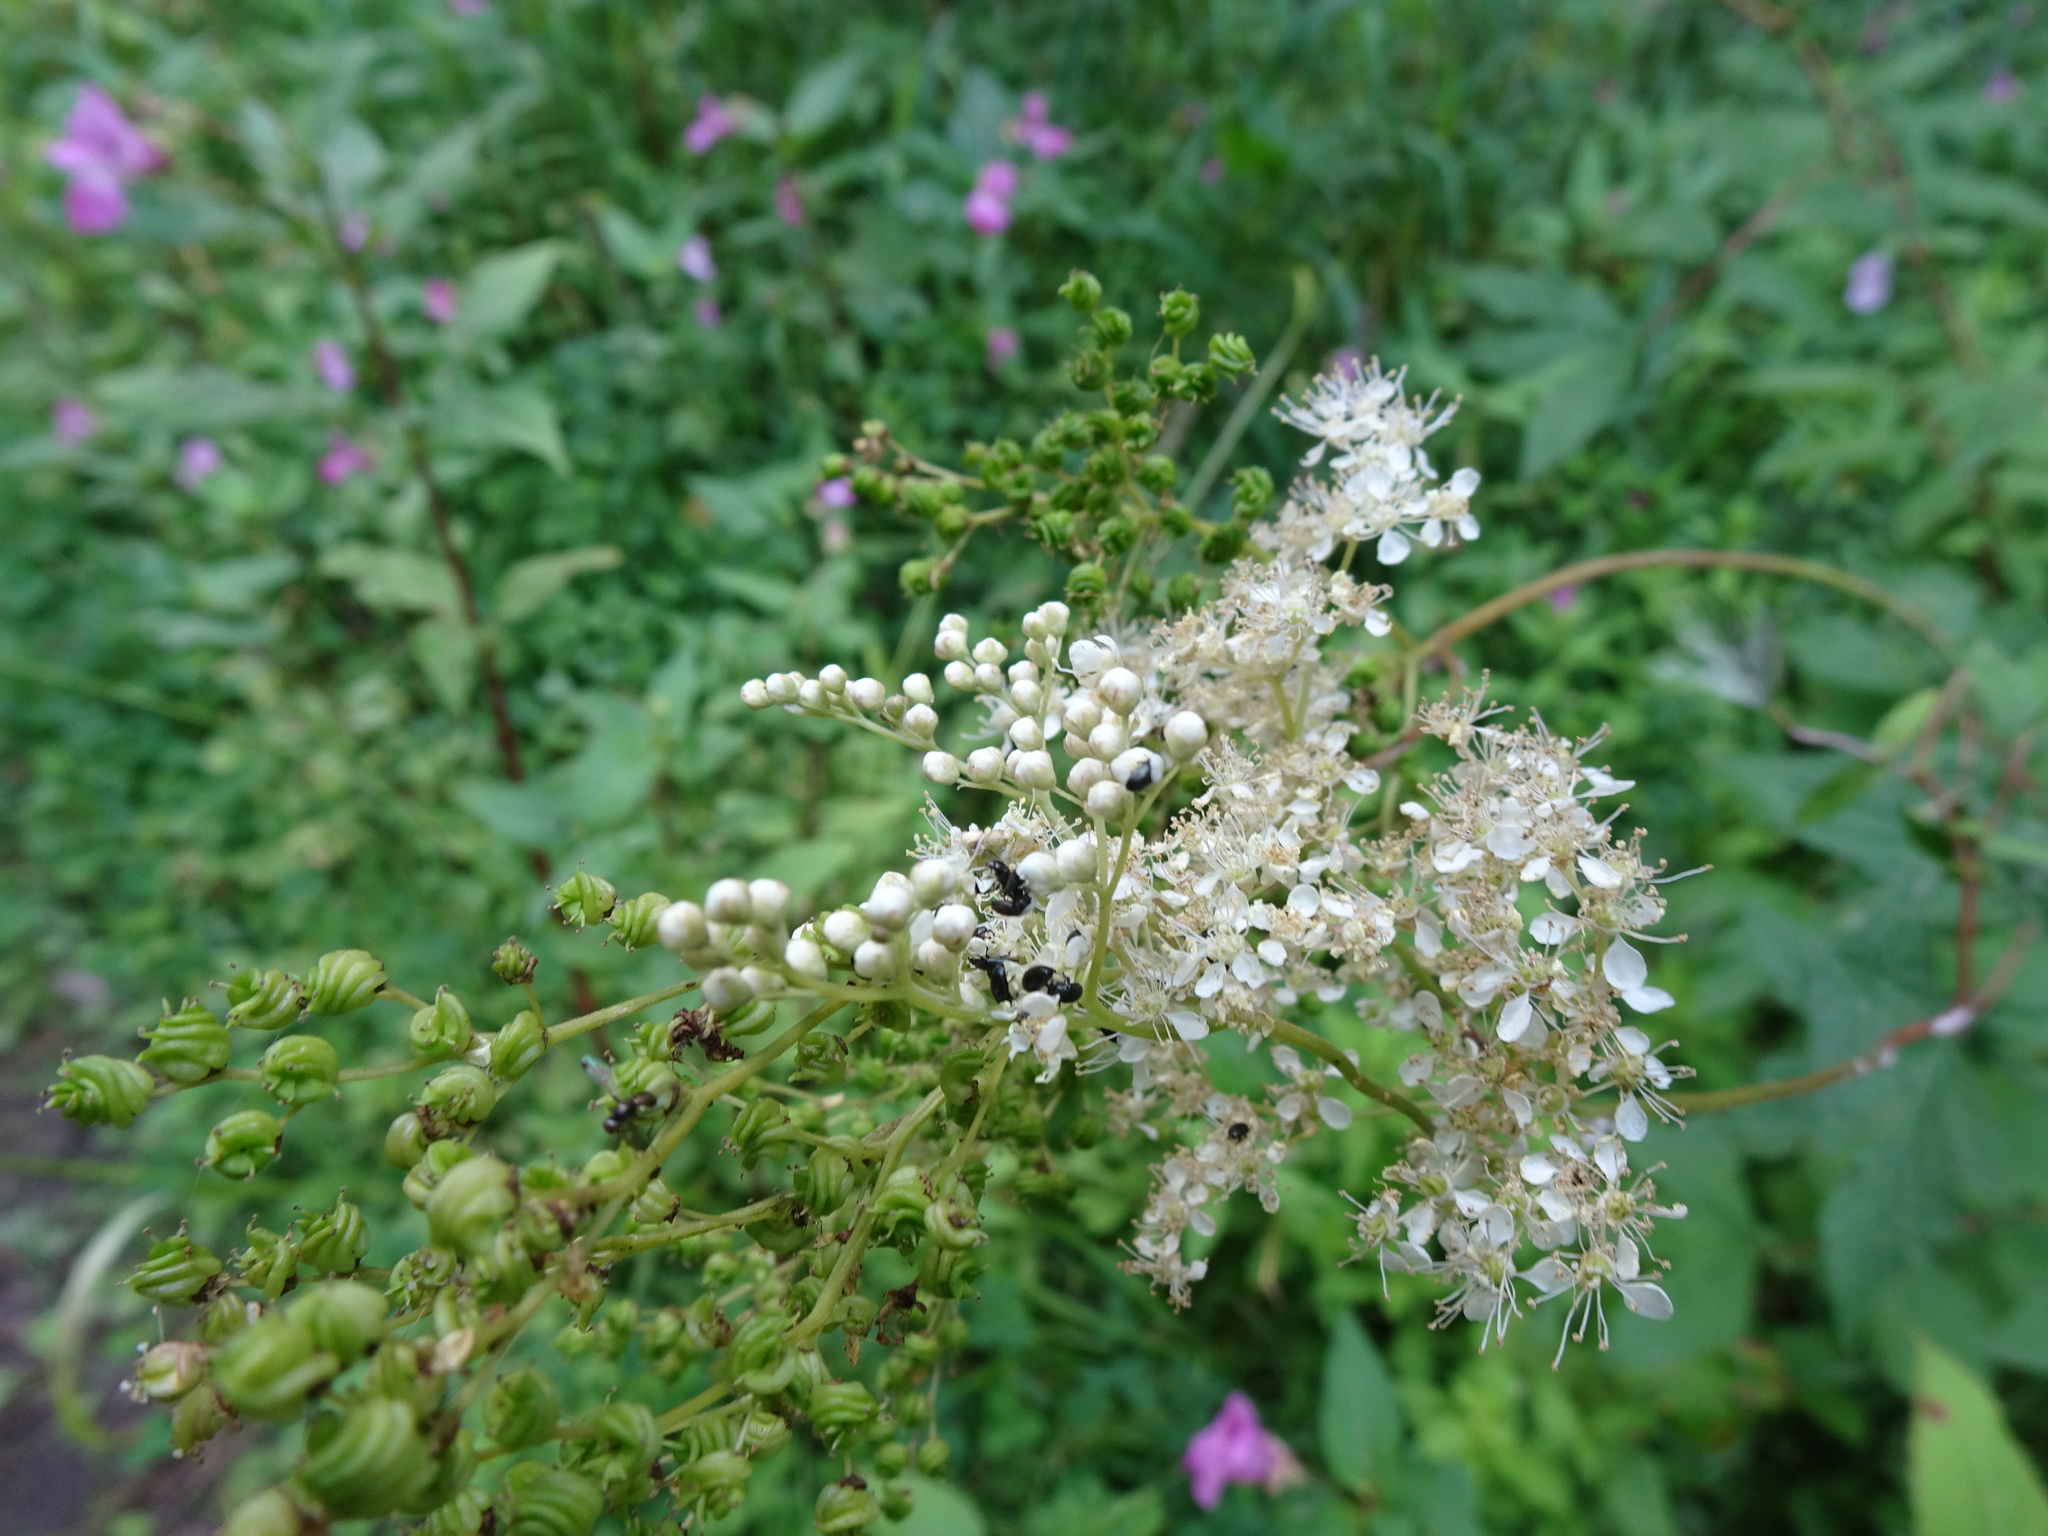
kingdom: Plantae
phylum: Tracheophyta
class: Magnoliopsida
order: Rosales
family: Rosaceae
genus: Filipendula
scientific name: Filipendula ulmaria
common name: Meadowsweet
